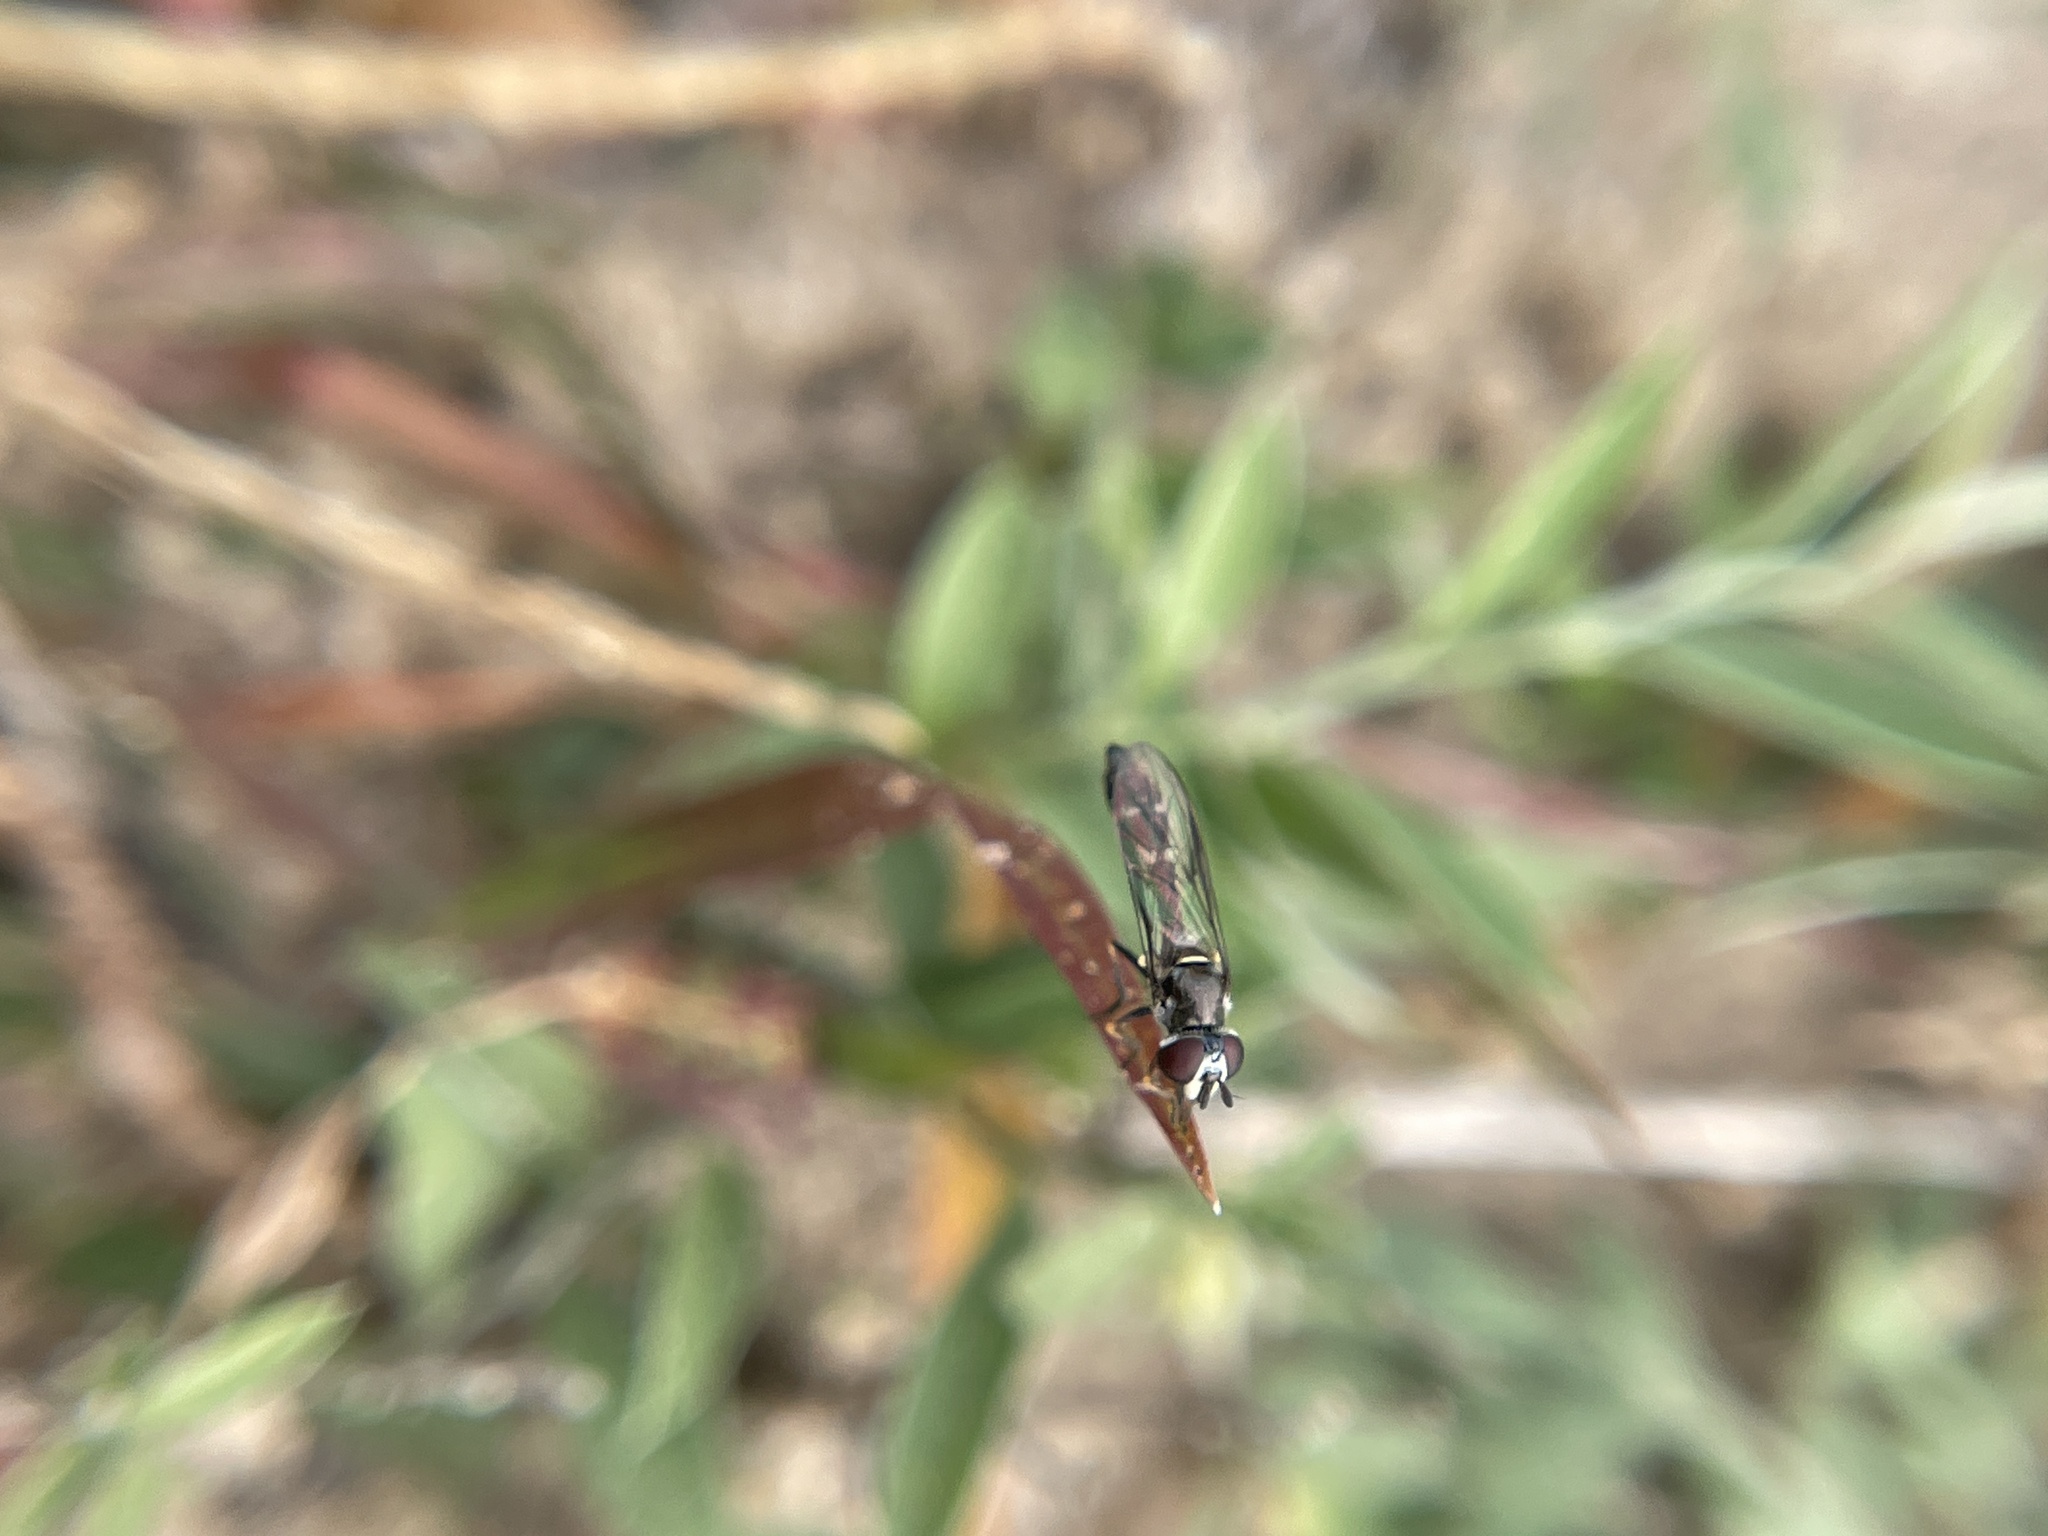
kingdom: Animalia
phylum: Arthropoda
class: Insecta
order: Diptera
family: Syrphidae
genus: Dioprosopa
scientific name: Dioprosopa clavatus
